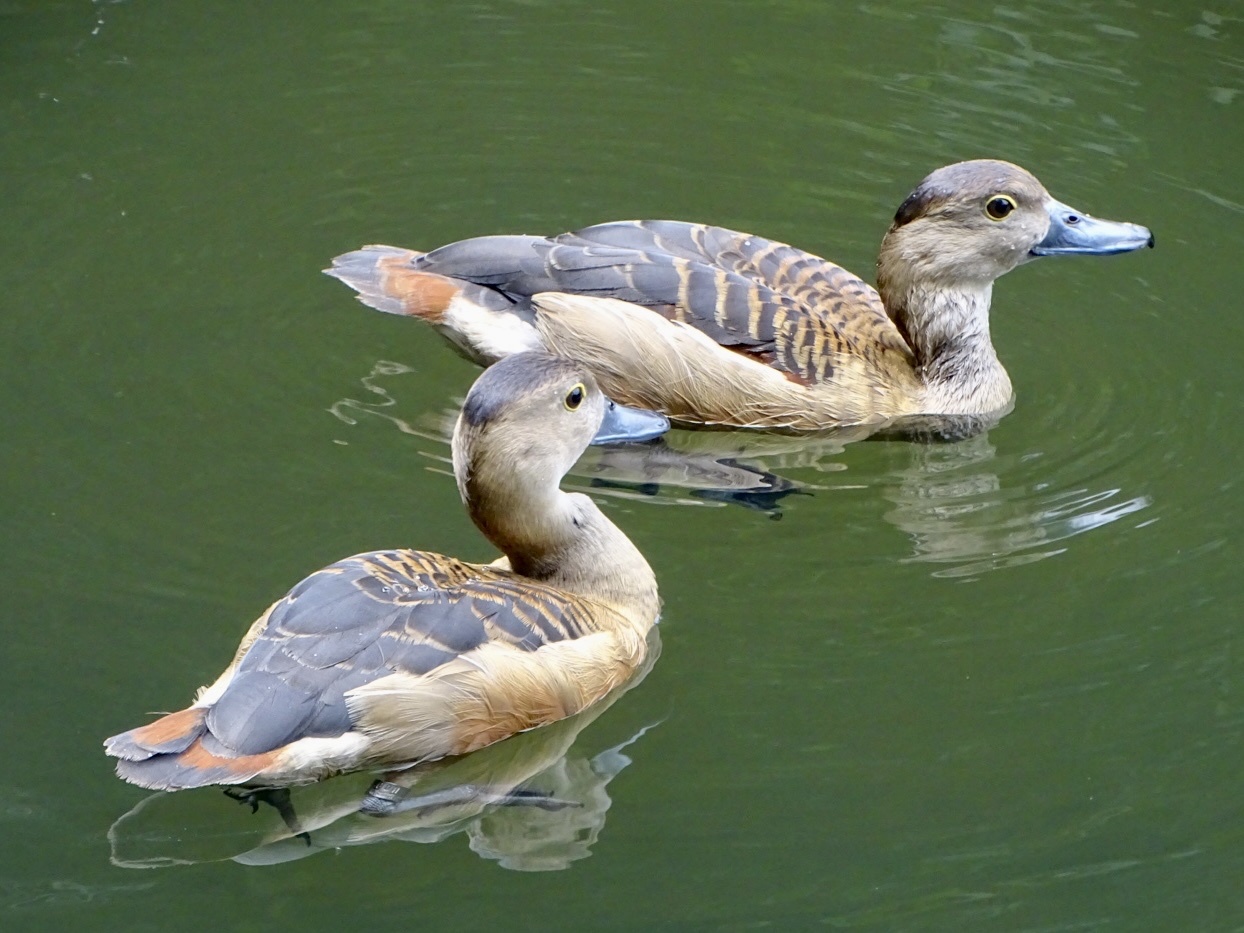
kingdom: Animalia
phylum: Chordata
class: Aves
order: Anseriformes
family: Anatidae
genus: Dendrocygna
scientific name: Dendrocygna javanica
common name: Lesser whistling-duck
